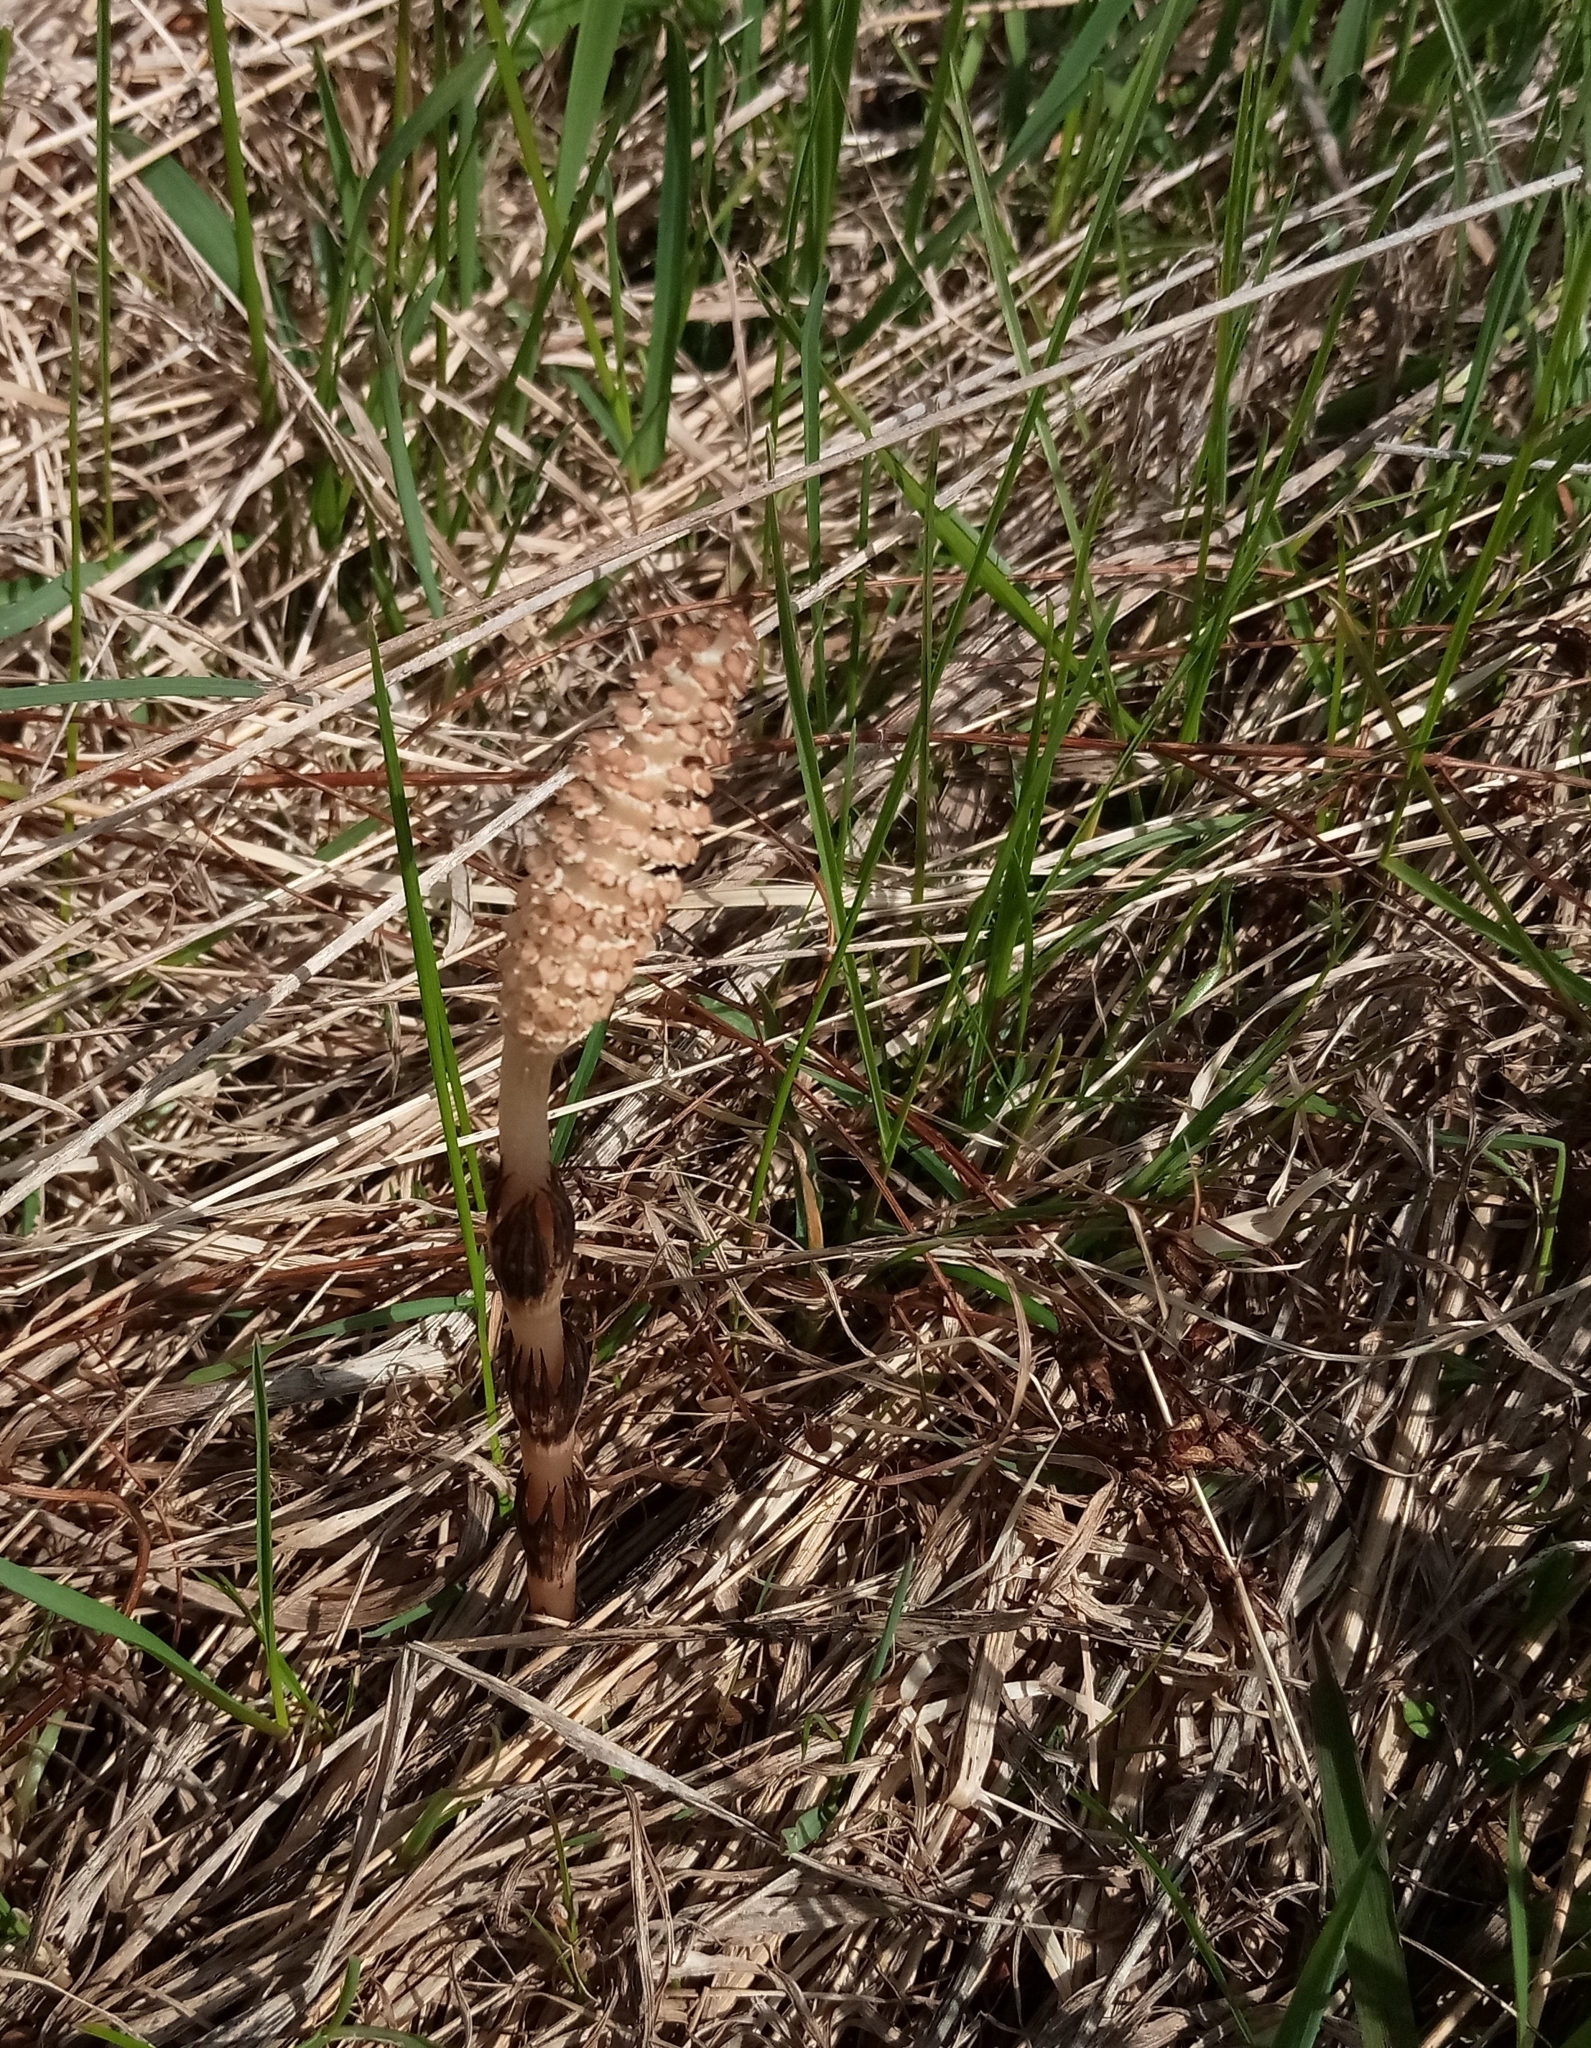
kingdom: Plantae
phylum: Tracheophyta
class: Polypodiopsida
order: Equisetales
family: Equisetaceae
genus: Equisetum
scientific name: Equisetum arvense
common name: Field horsetail
